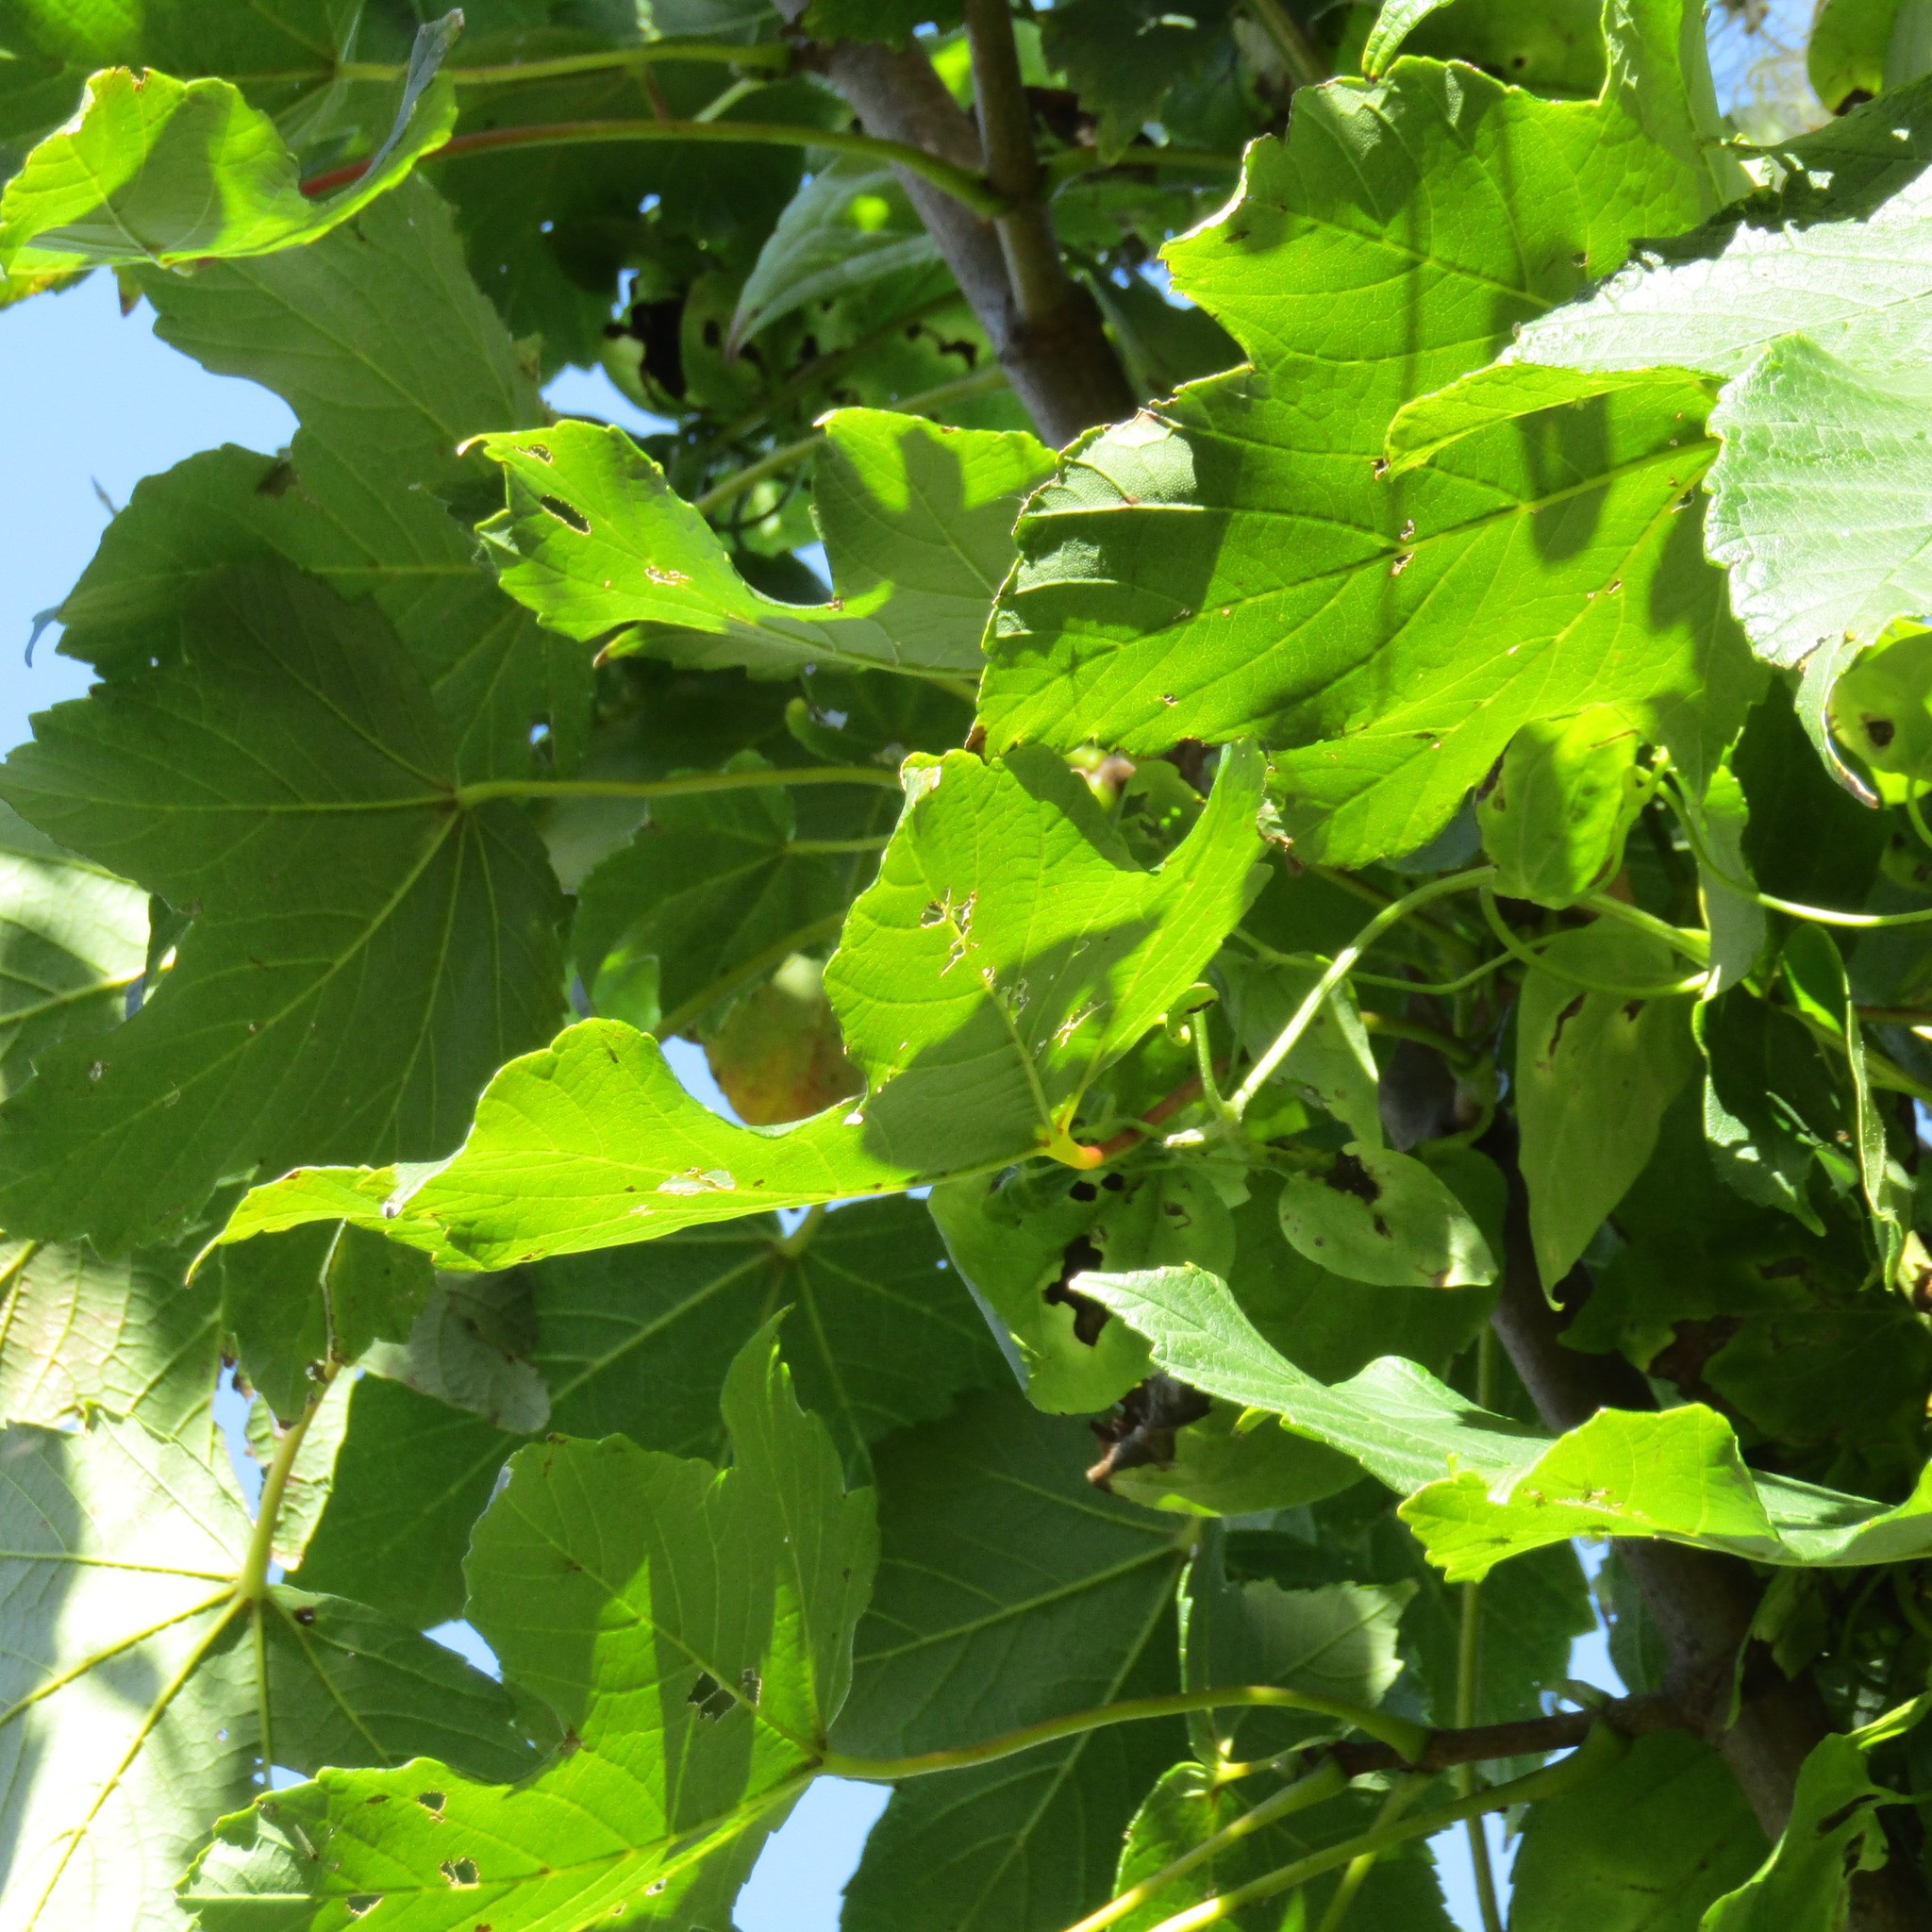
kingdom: Plantae
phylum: Tracheophyta
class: Magnoliopsida
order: Sapindales
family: Sapindaceae
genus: Acer
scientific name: Acer pseudoplatanus
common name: Sycamore
